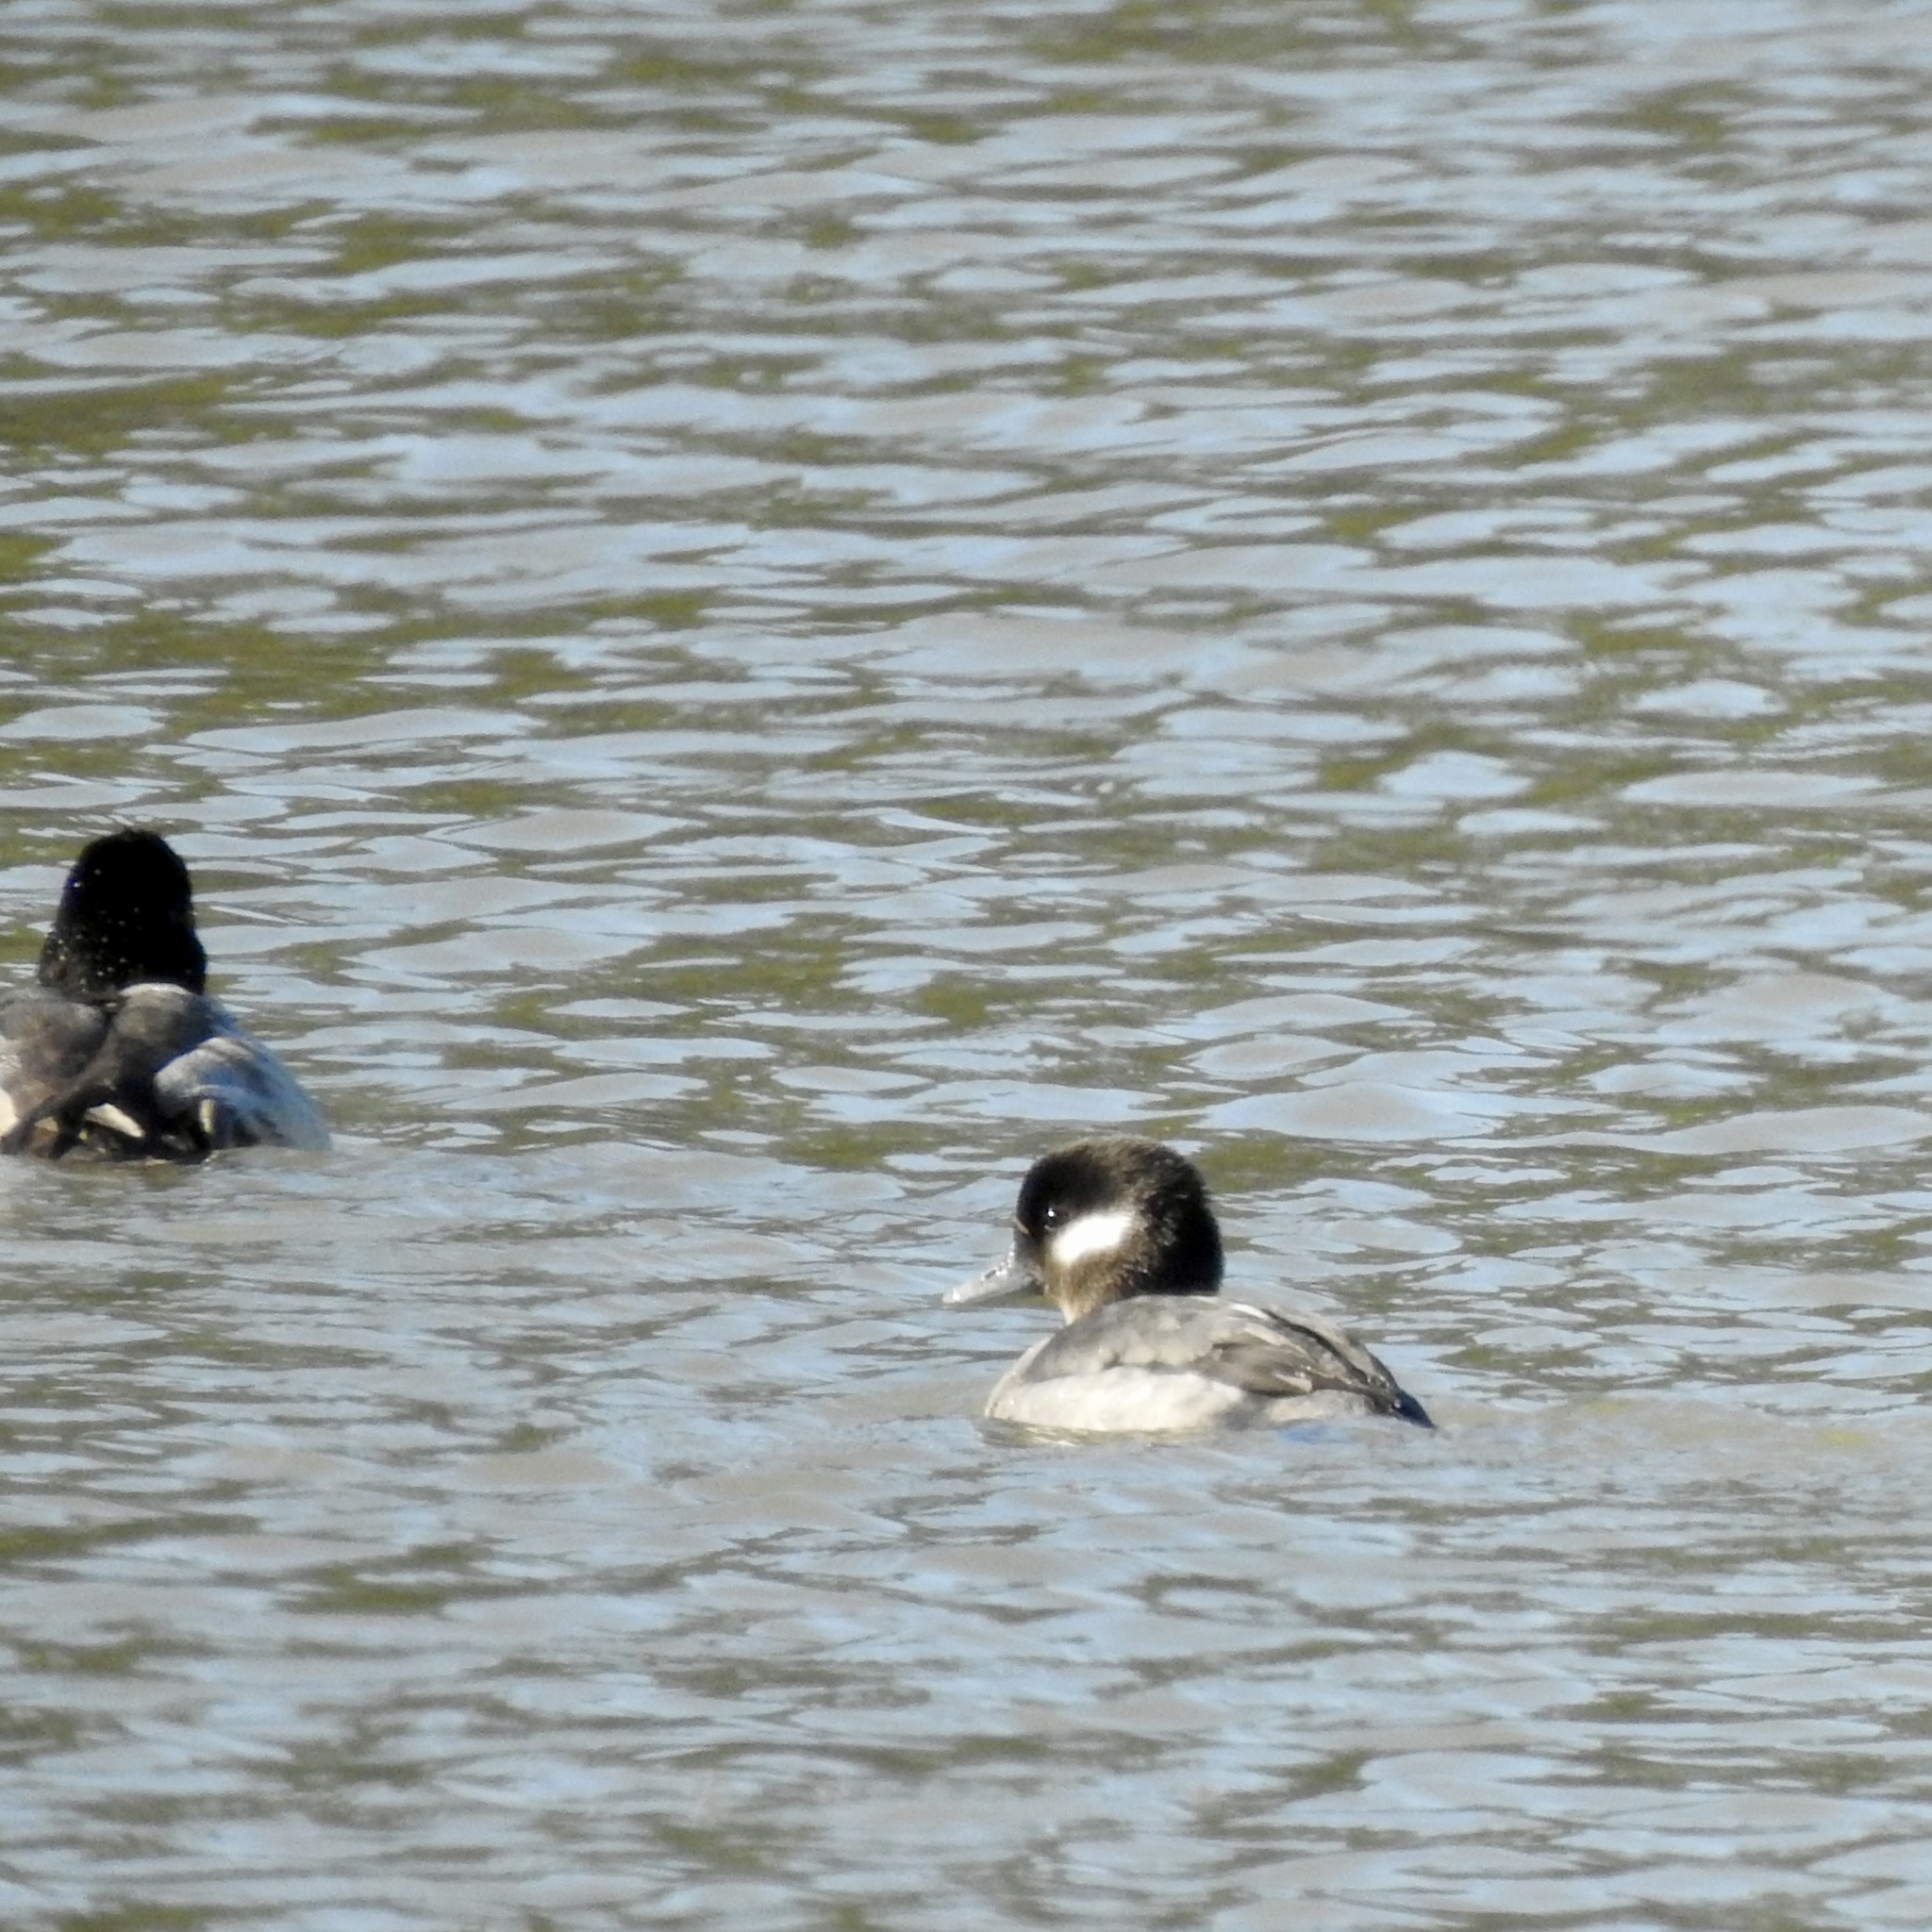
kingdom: Animalia
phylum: Chordata
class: Aves
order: Anseriformes
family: Anatidae
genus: Bucephala
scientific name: Bucephala albeola
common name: Bufflehead
